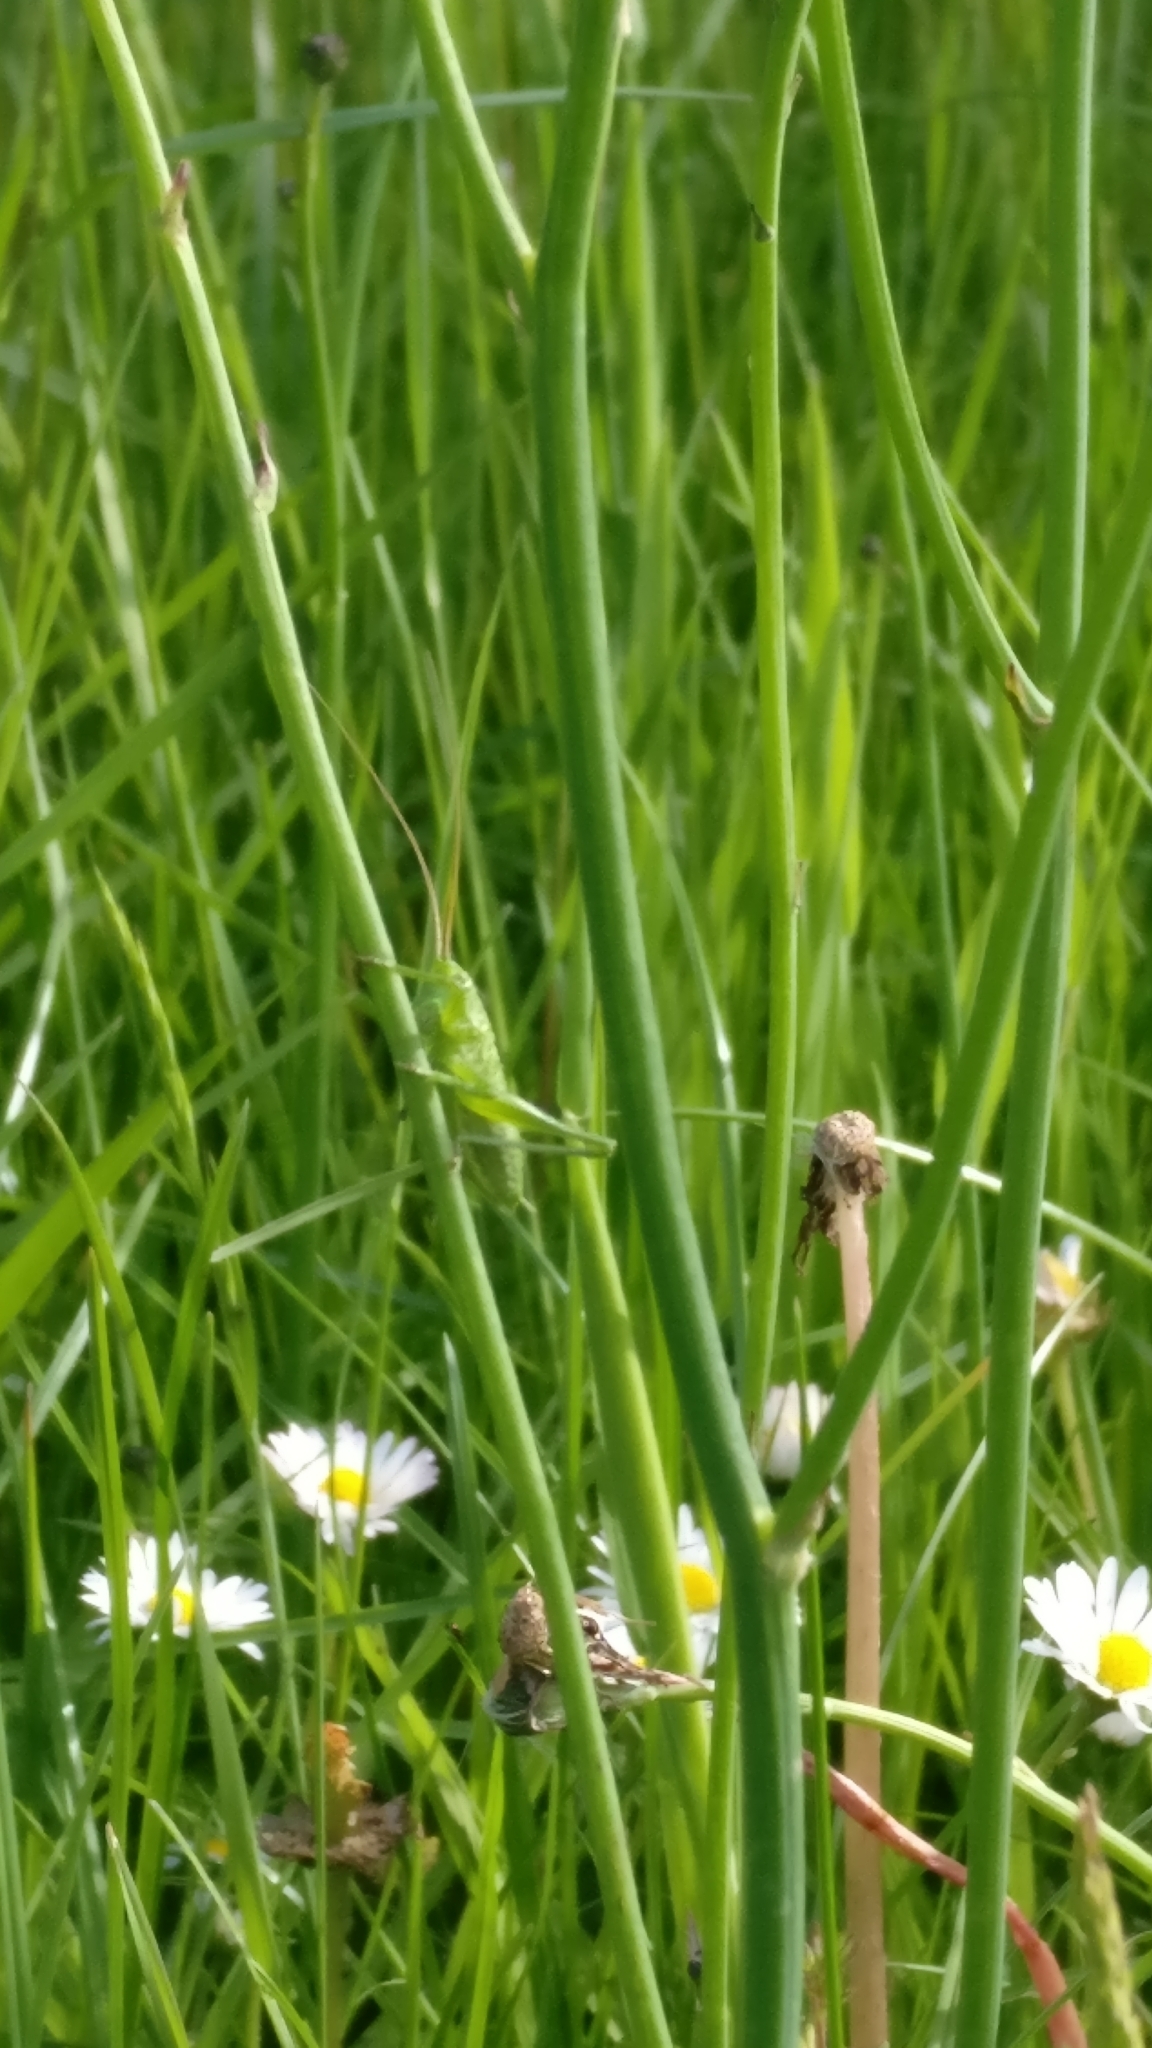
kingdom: Animalia
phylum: Arthropoda
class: Insecta
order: Orthoptera
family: Tettigoniidae
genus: Tettigonia
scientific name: Tettigonia viridissima
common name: Great green bush-cricket
